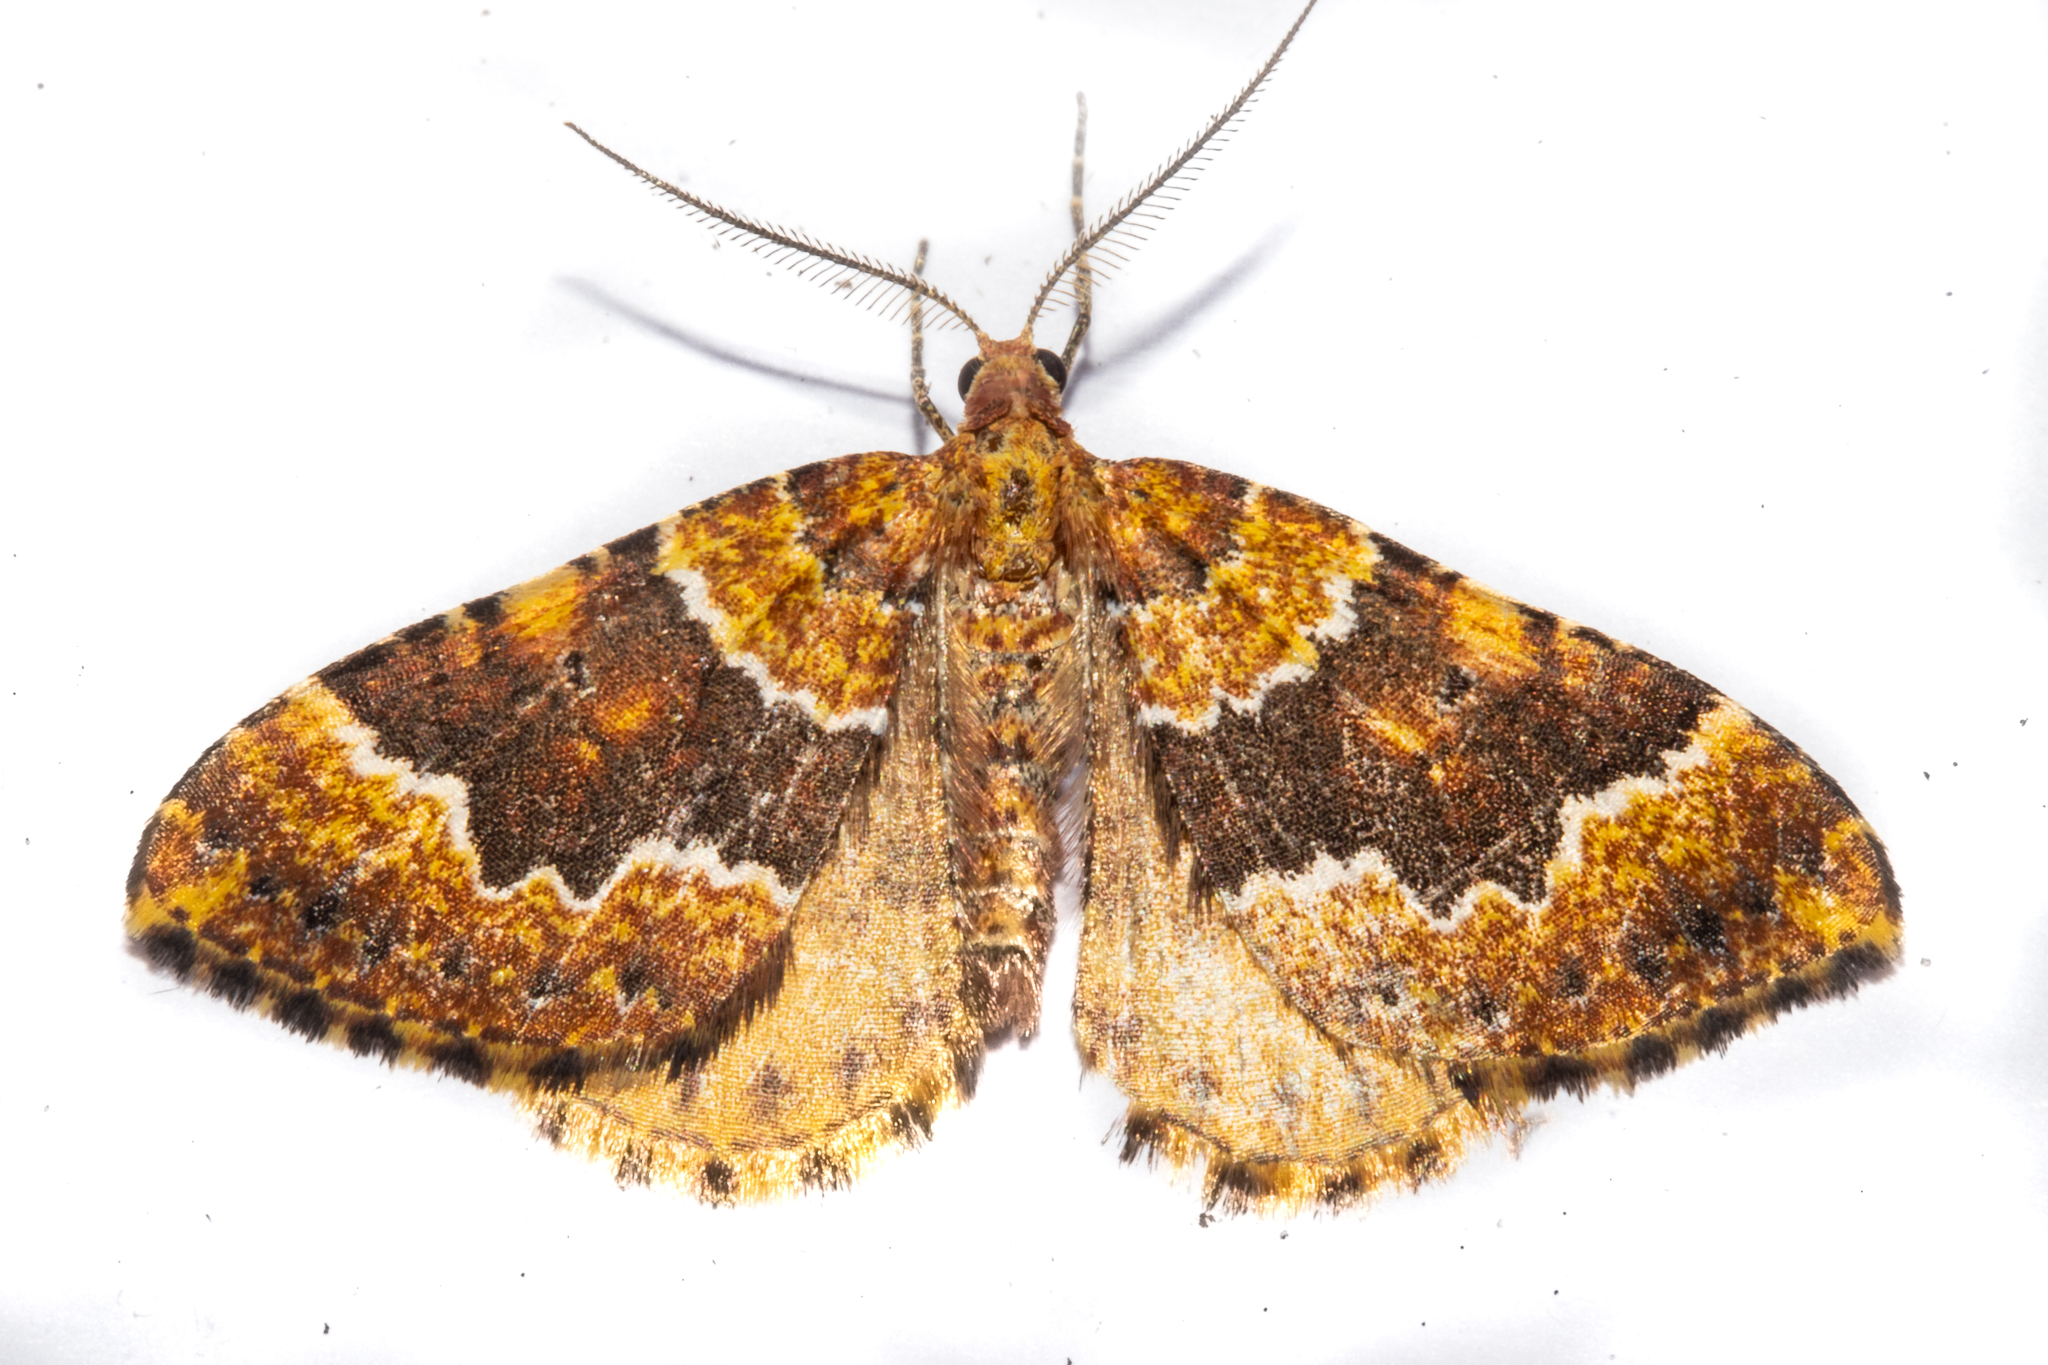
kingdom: Animalia
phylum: Arthropoda
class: Insecta
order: Lepidoptera
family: Geometridae
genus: Asaphodes
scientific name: Asaphodes prasinias
